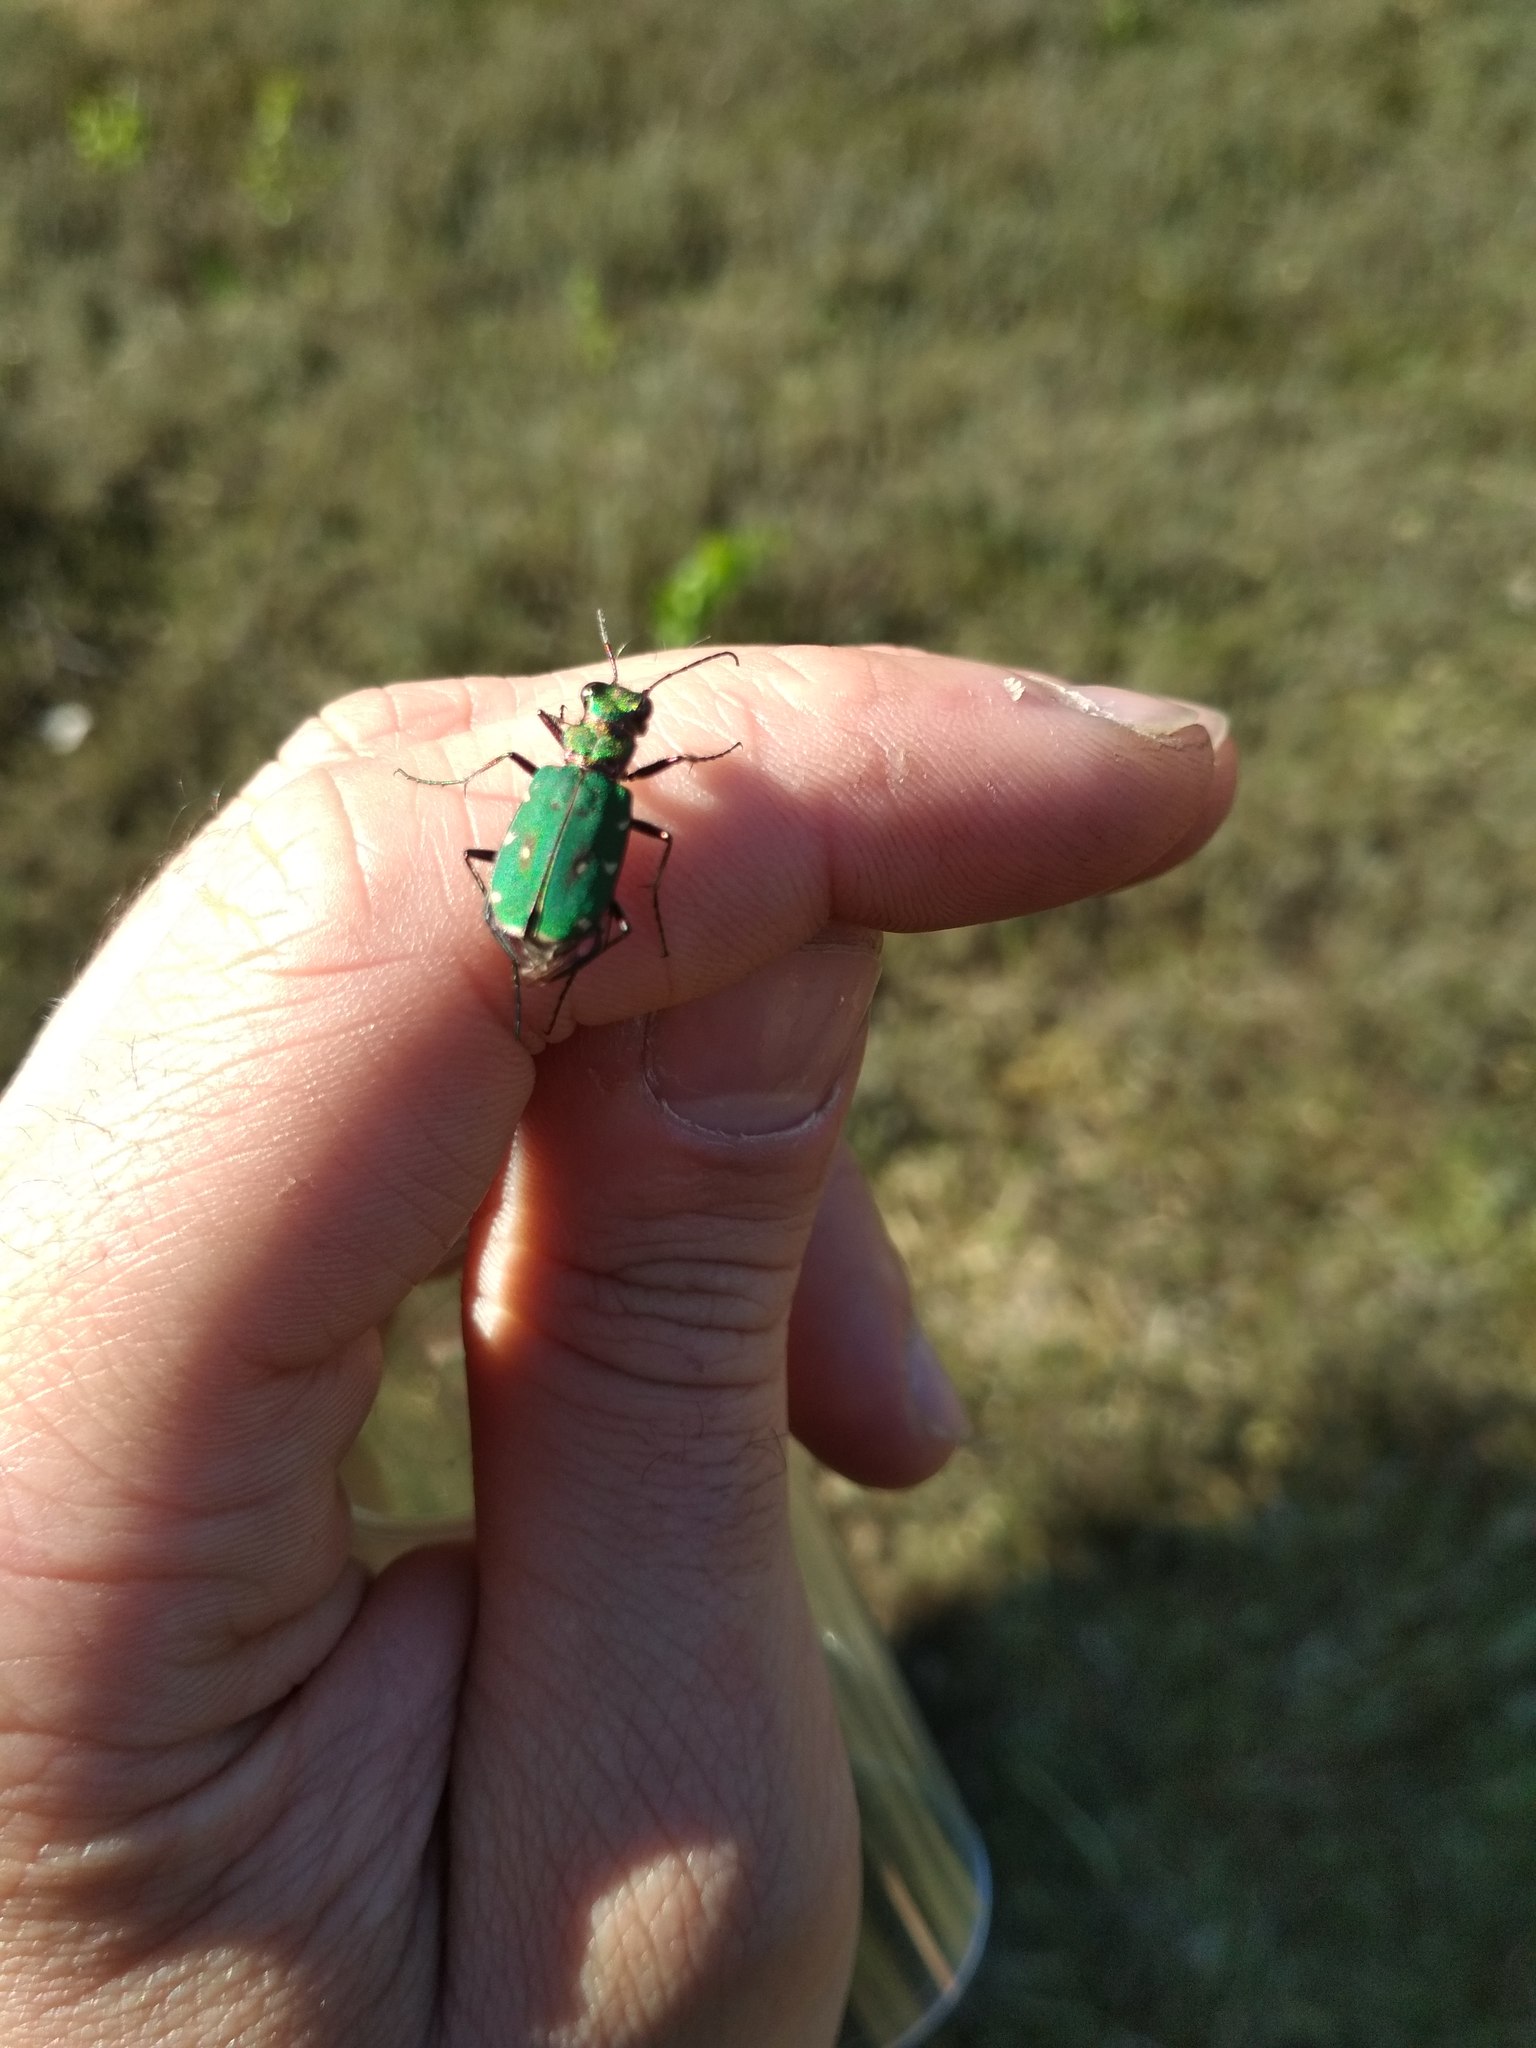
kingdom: Animalia
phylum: Arthropoda
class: Insecta
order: Coleoptera
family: Carabidae
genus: Cicindela
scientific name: Cicindela campestris
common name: Common tiger beetle
